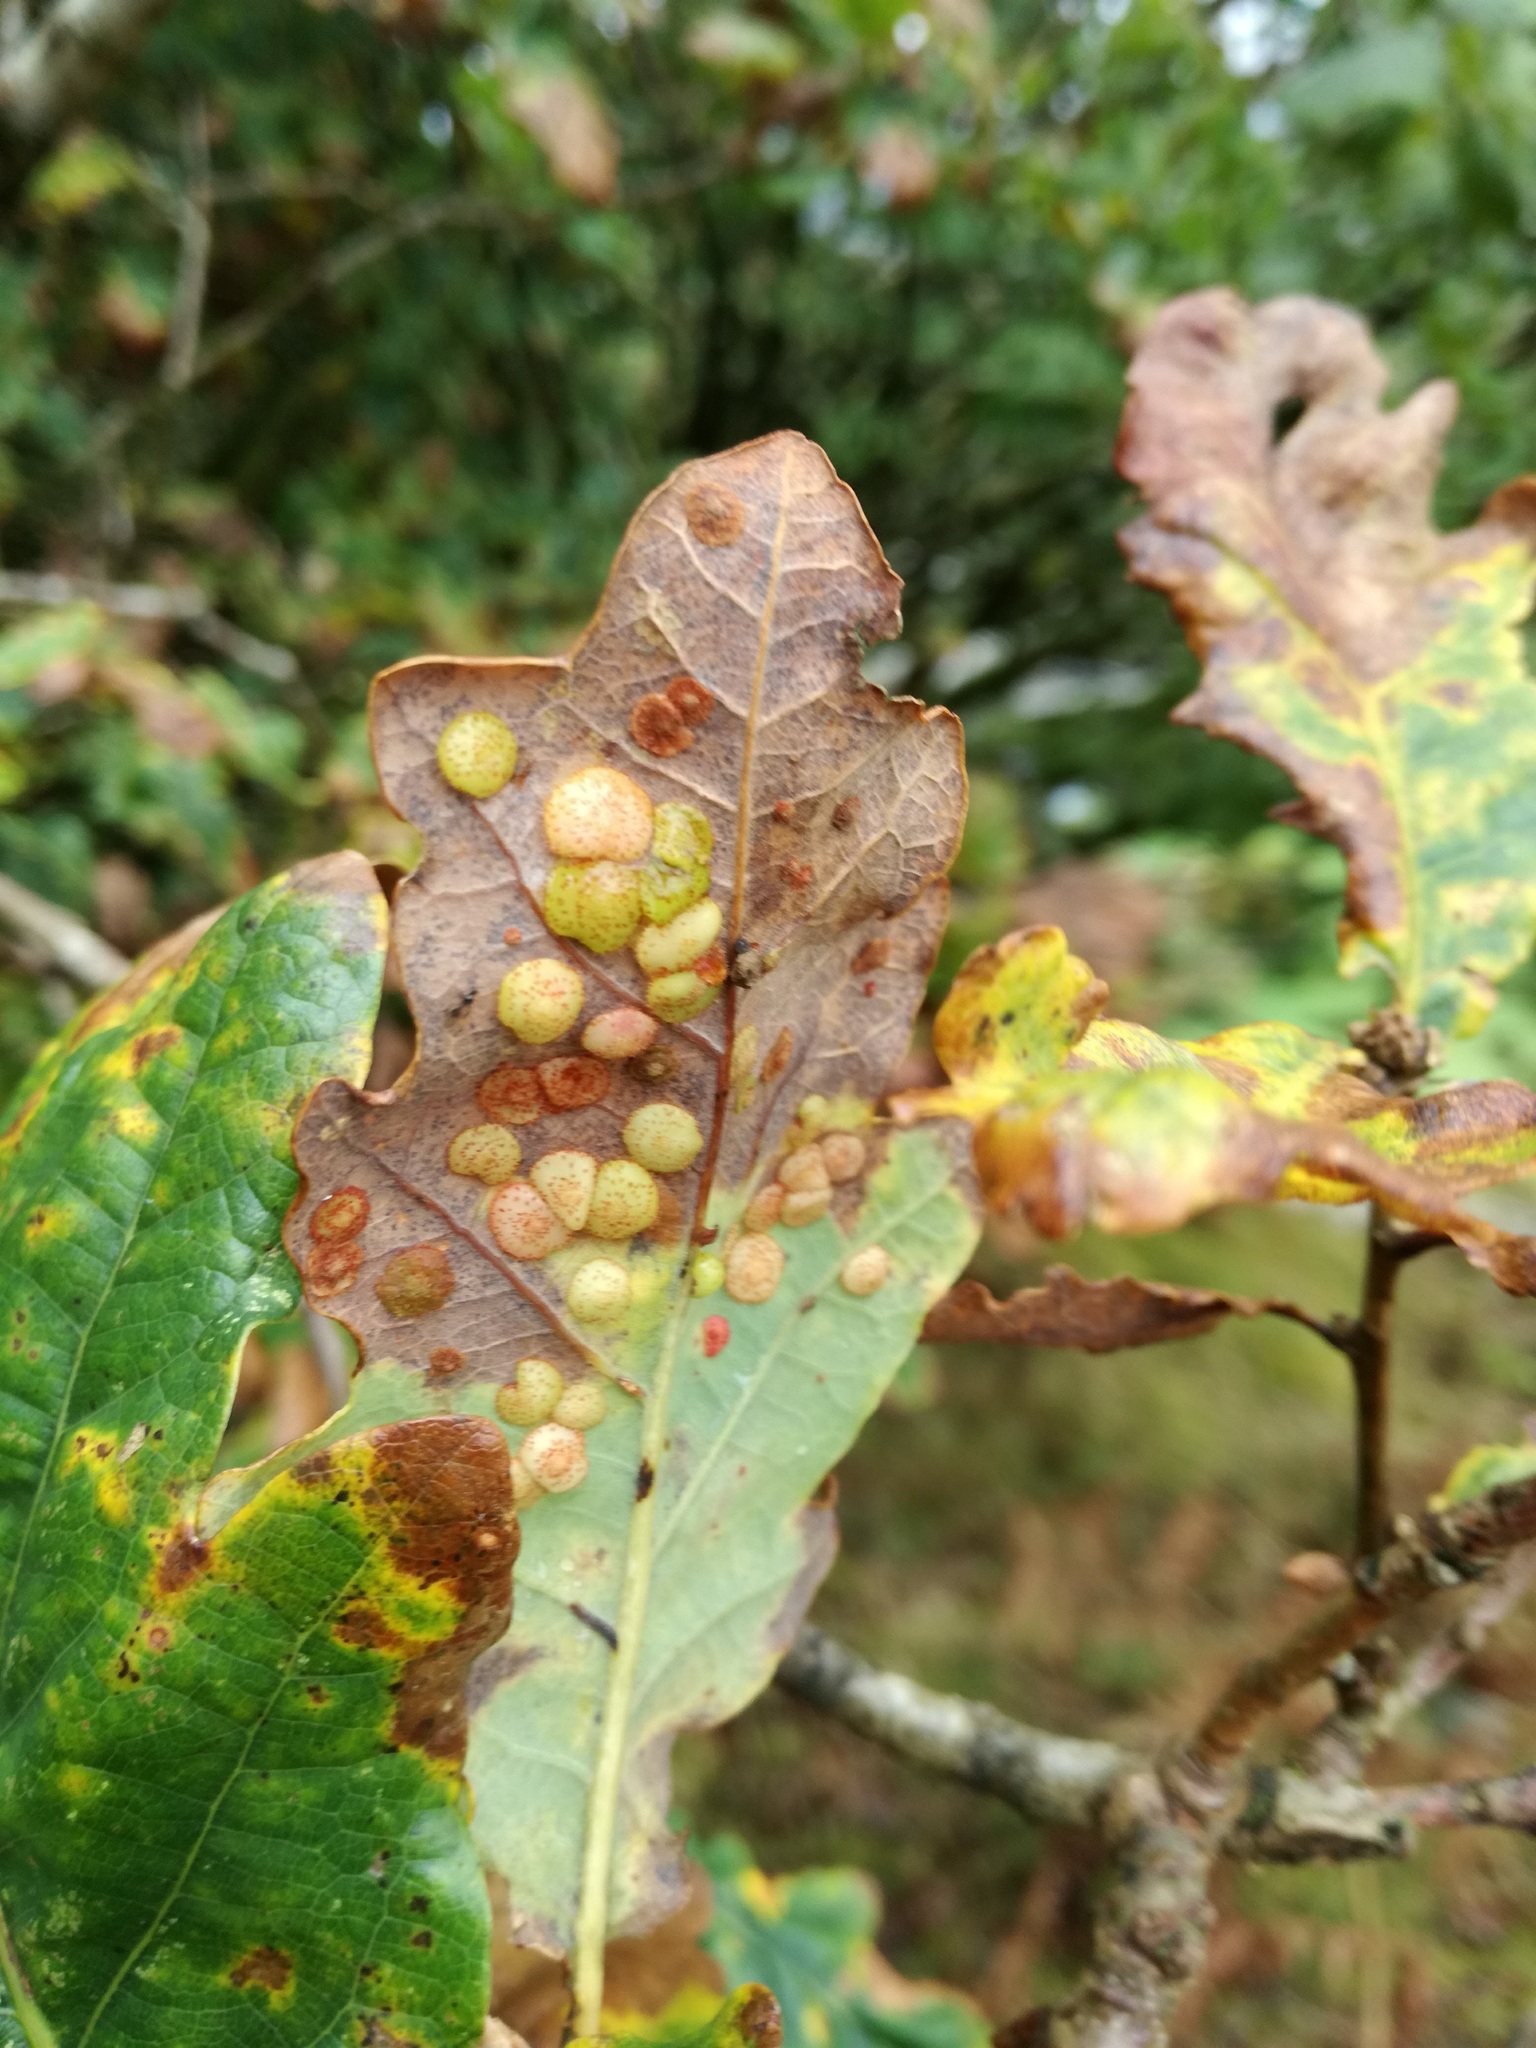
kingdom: Animalia
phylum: Arthropoda
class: Insecta
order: Hymenoptera
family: Cynipidae
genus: Neuroterus
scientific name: Neuroterus quercusbaccarum
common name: Common spangle gall
